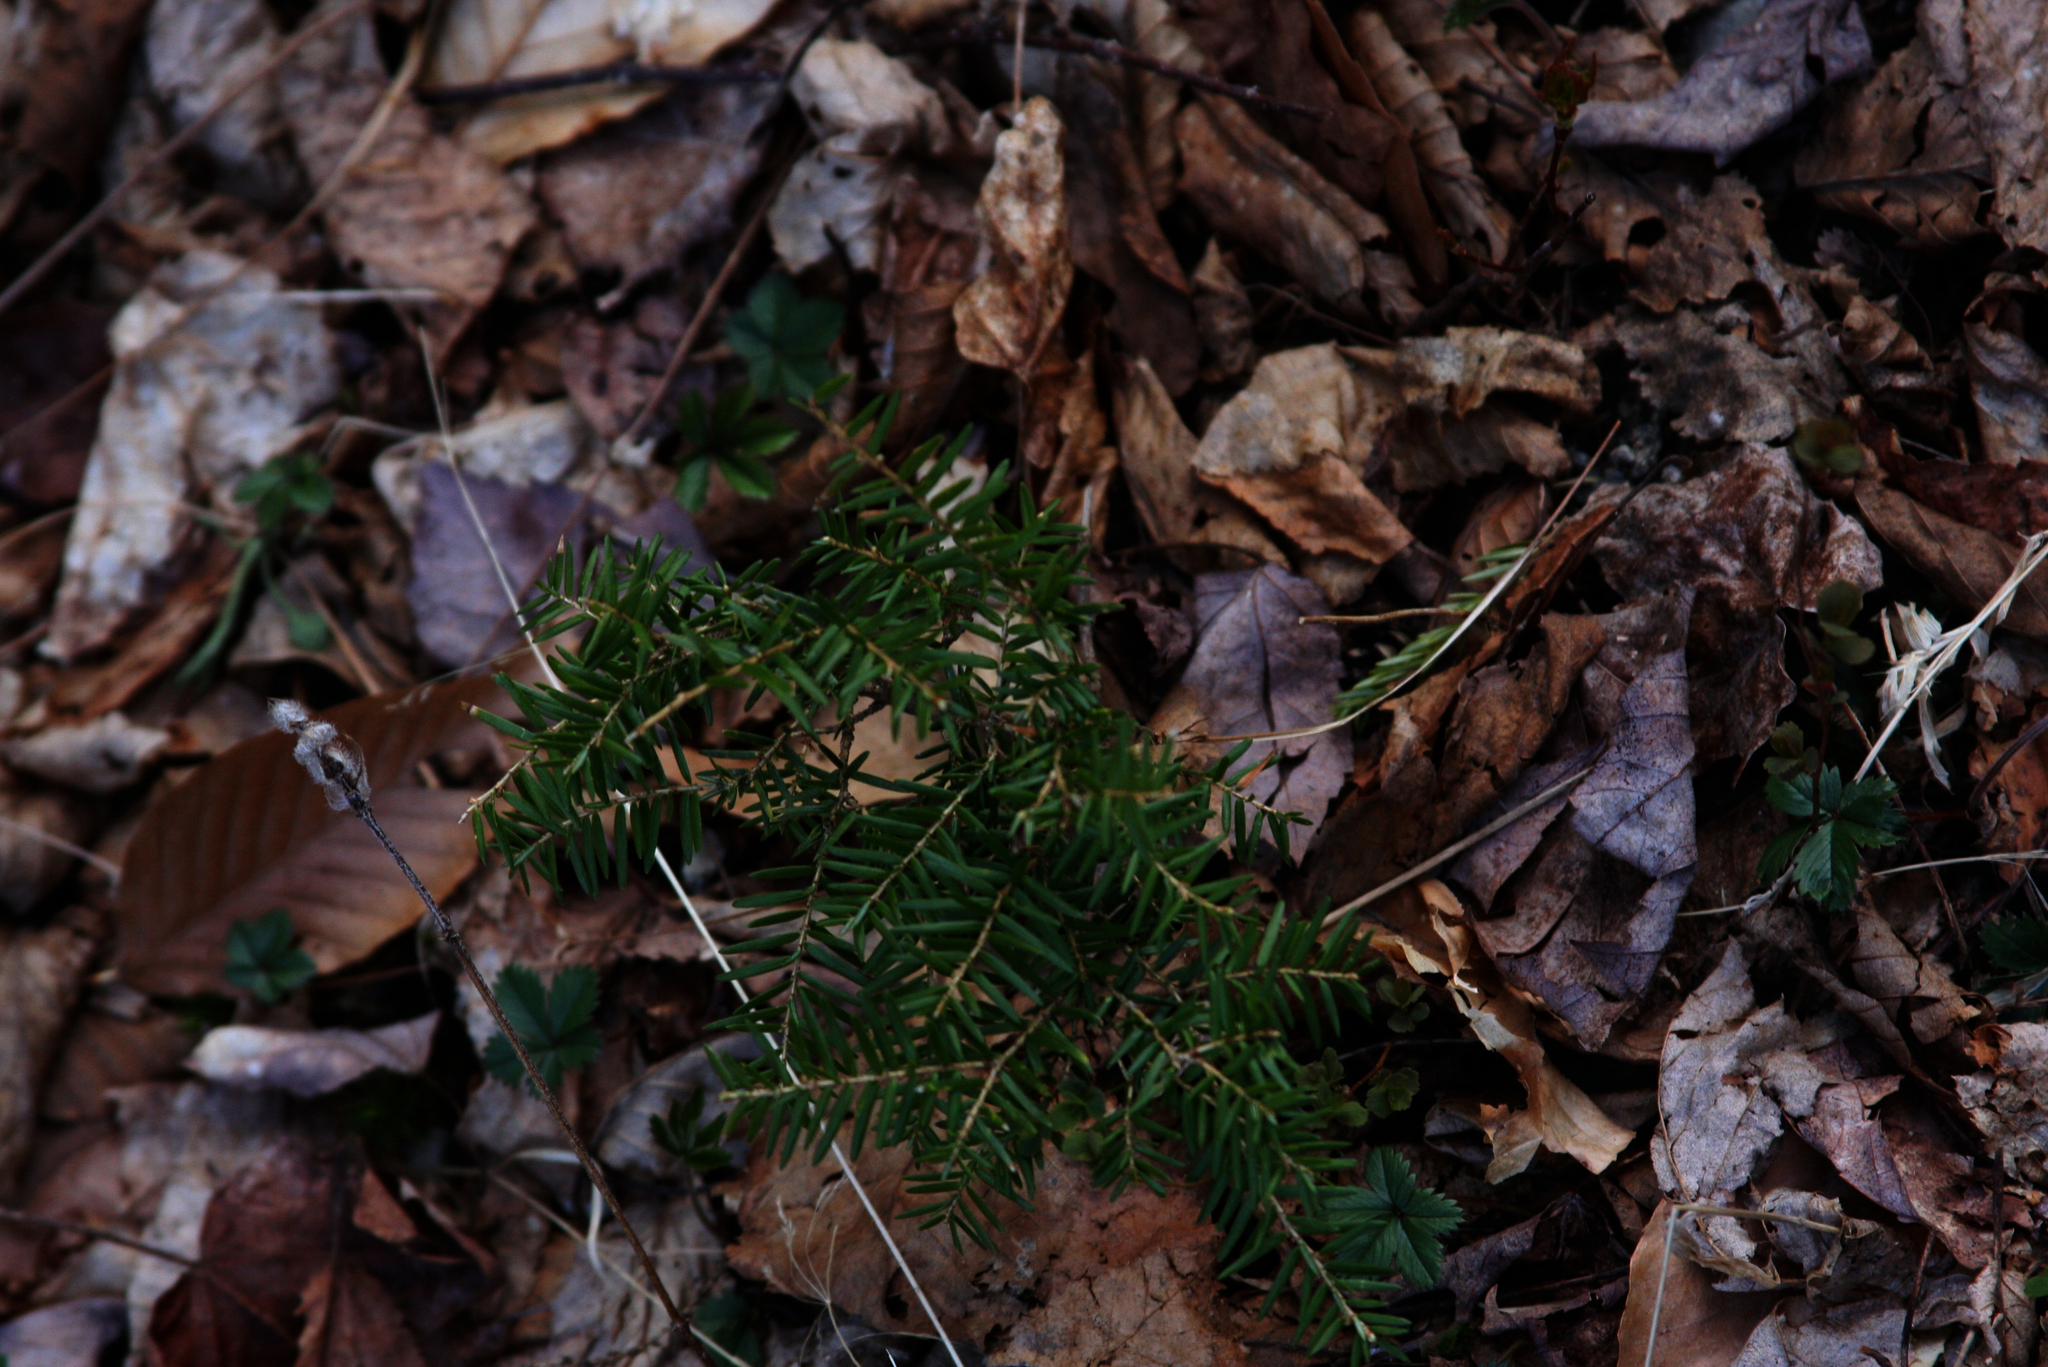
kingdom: Plantae
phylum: Tracheophyta
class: Pinopsida
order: Pinales
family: Pinaceae
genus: Tsuga
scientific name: Tsuga canadensis
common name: Eastern hemlock
